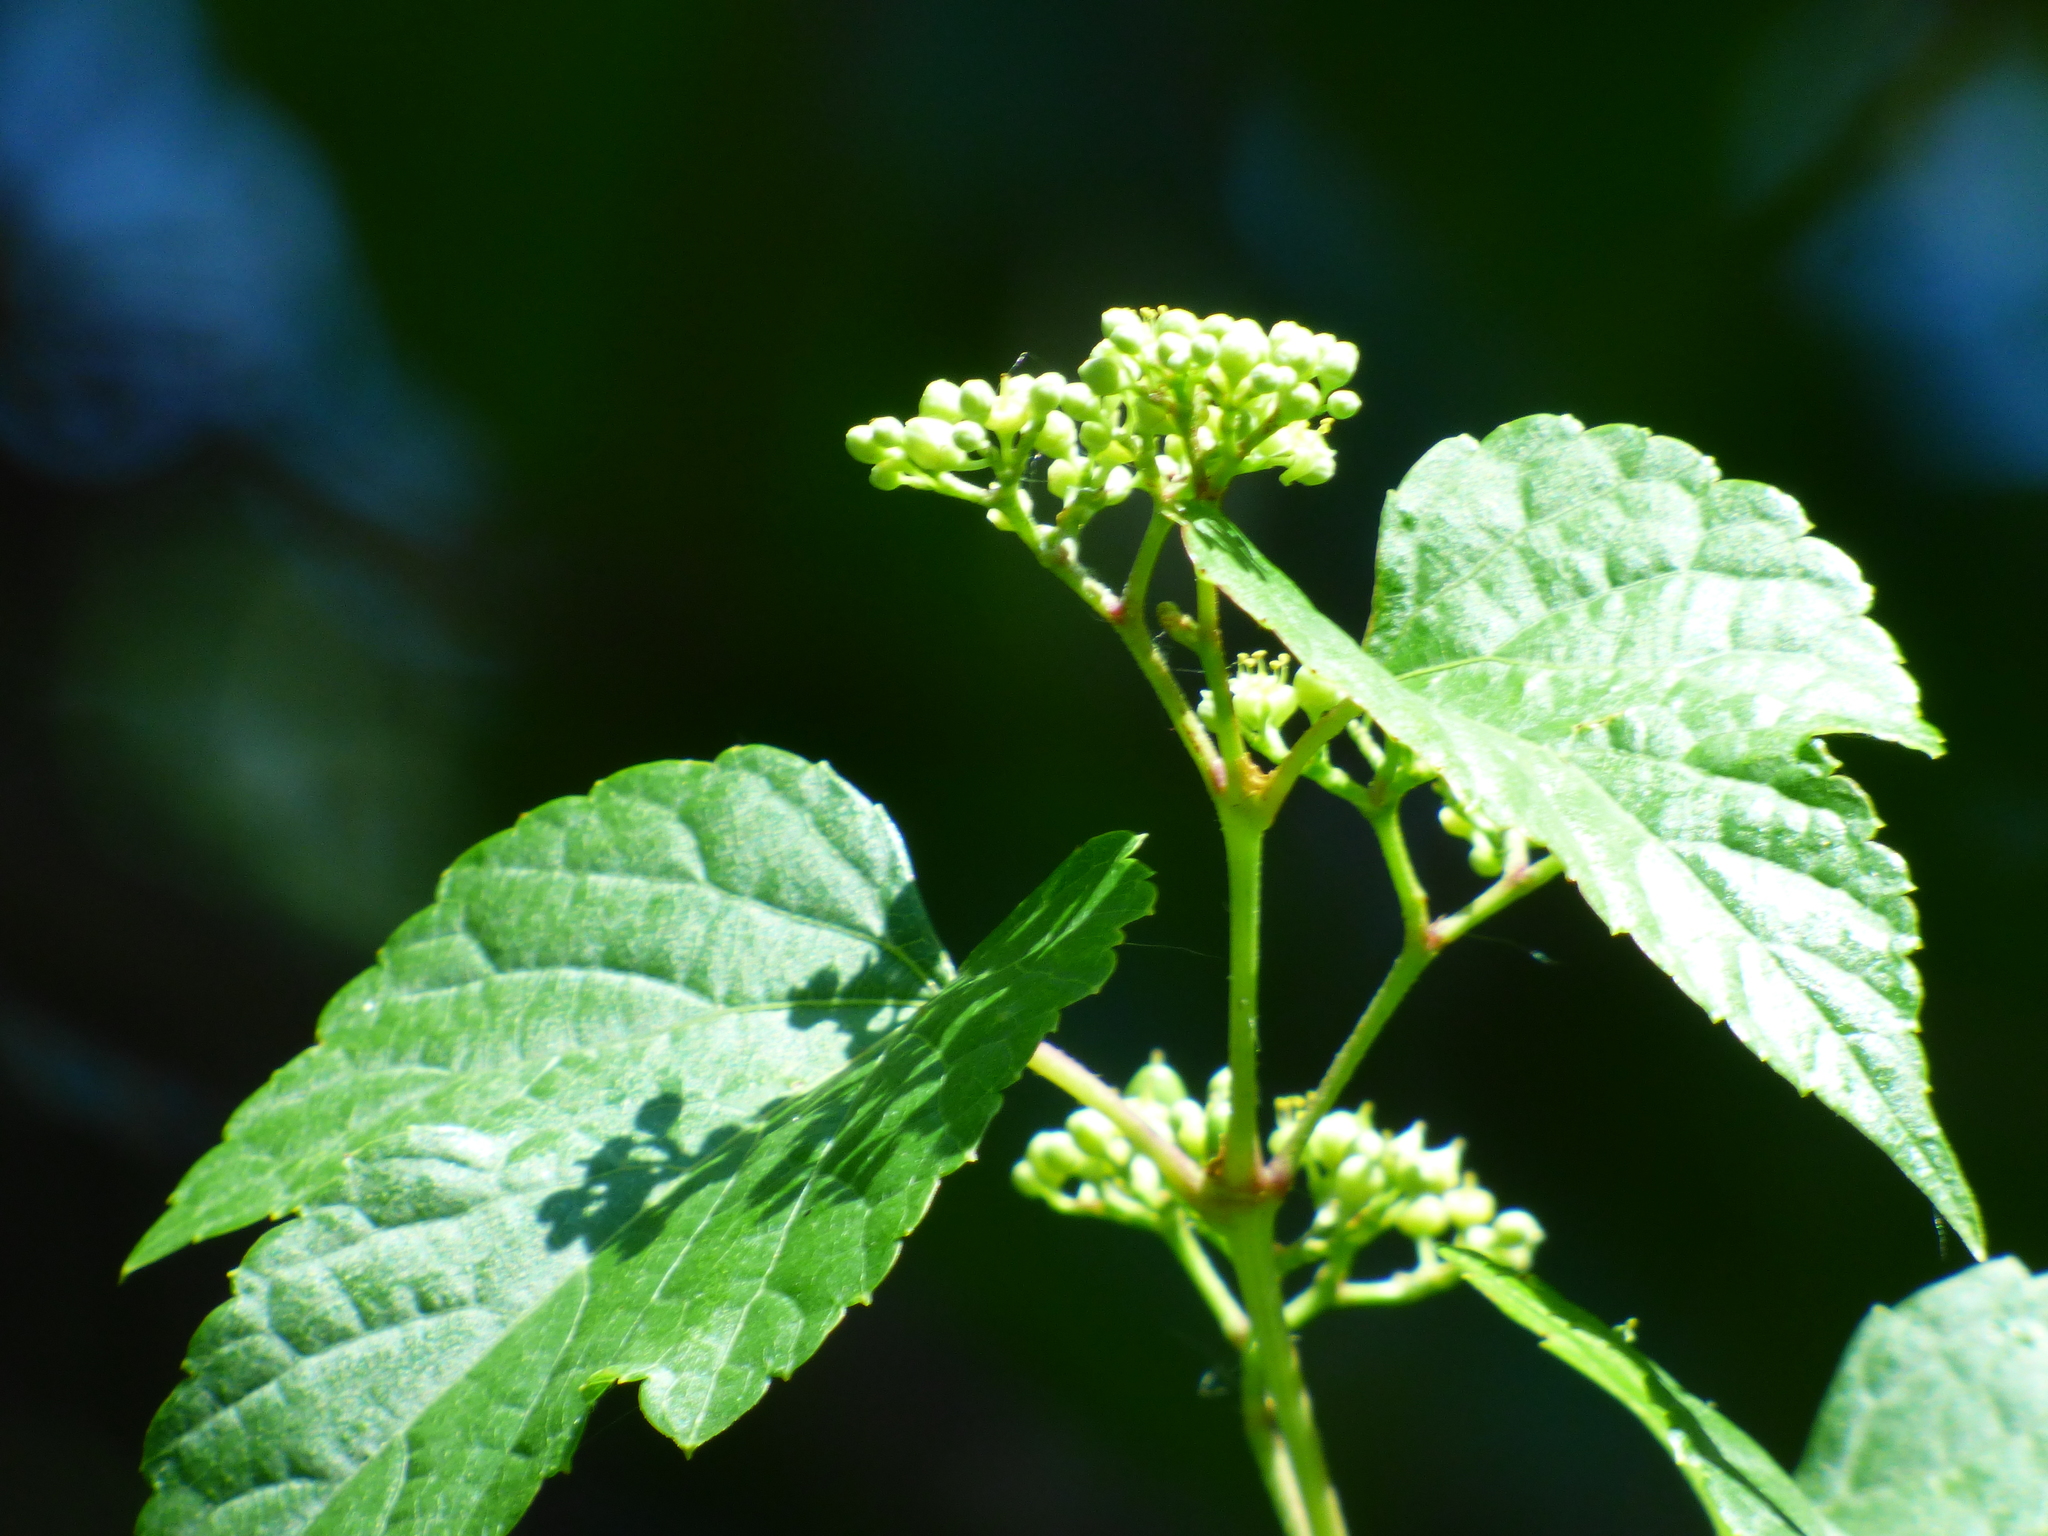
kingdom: Plantae
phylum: Tracheophyta
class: Magnoliopsida
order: Vitales
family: Vitaceae
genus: Ampelopsis
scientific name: Ampelopsis glandulosa
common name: Amur peppervine
